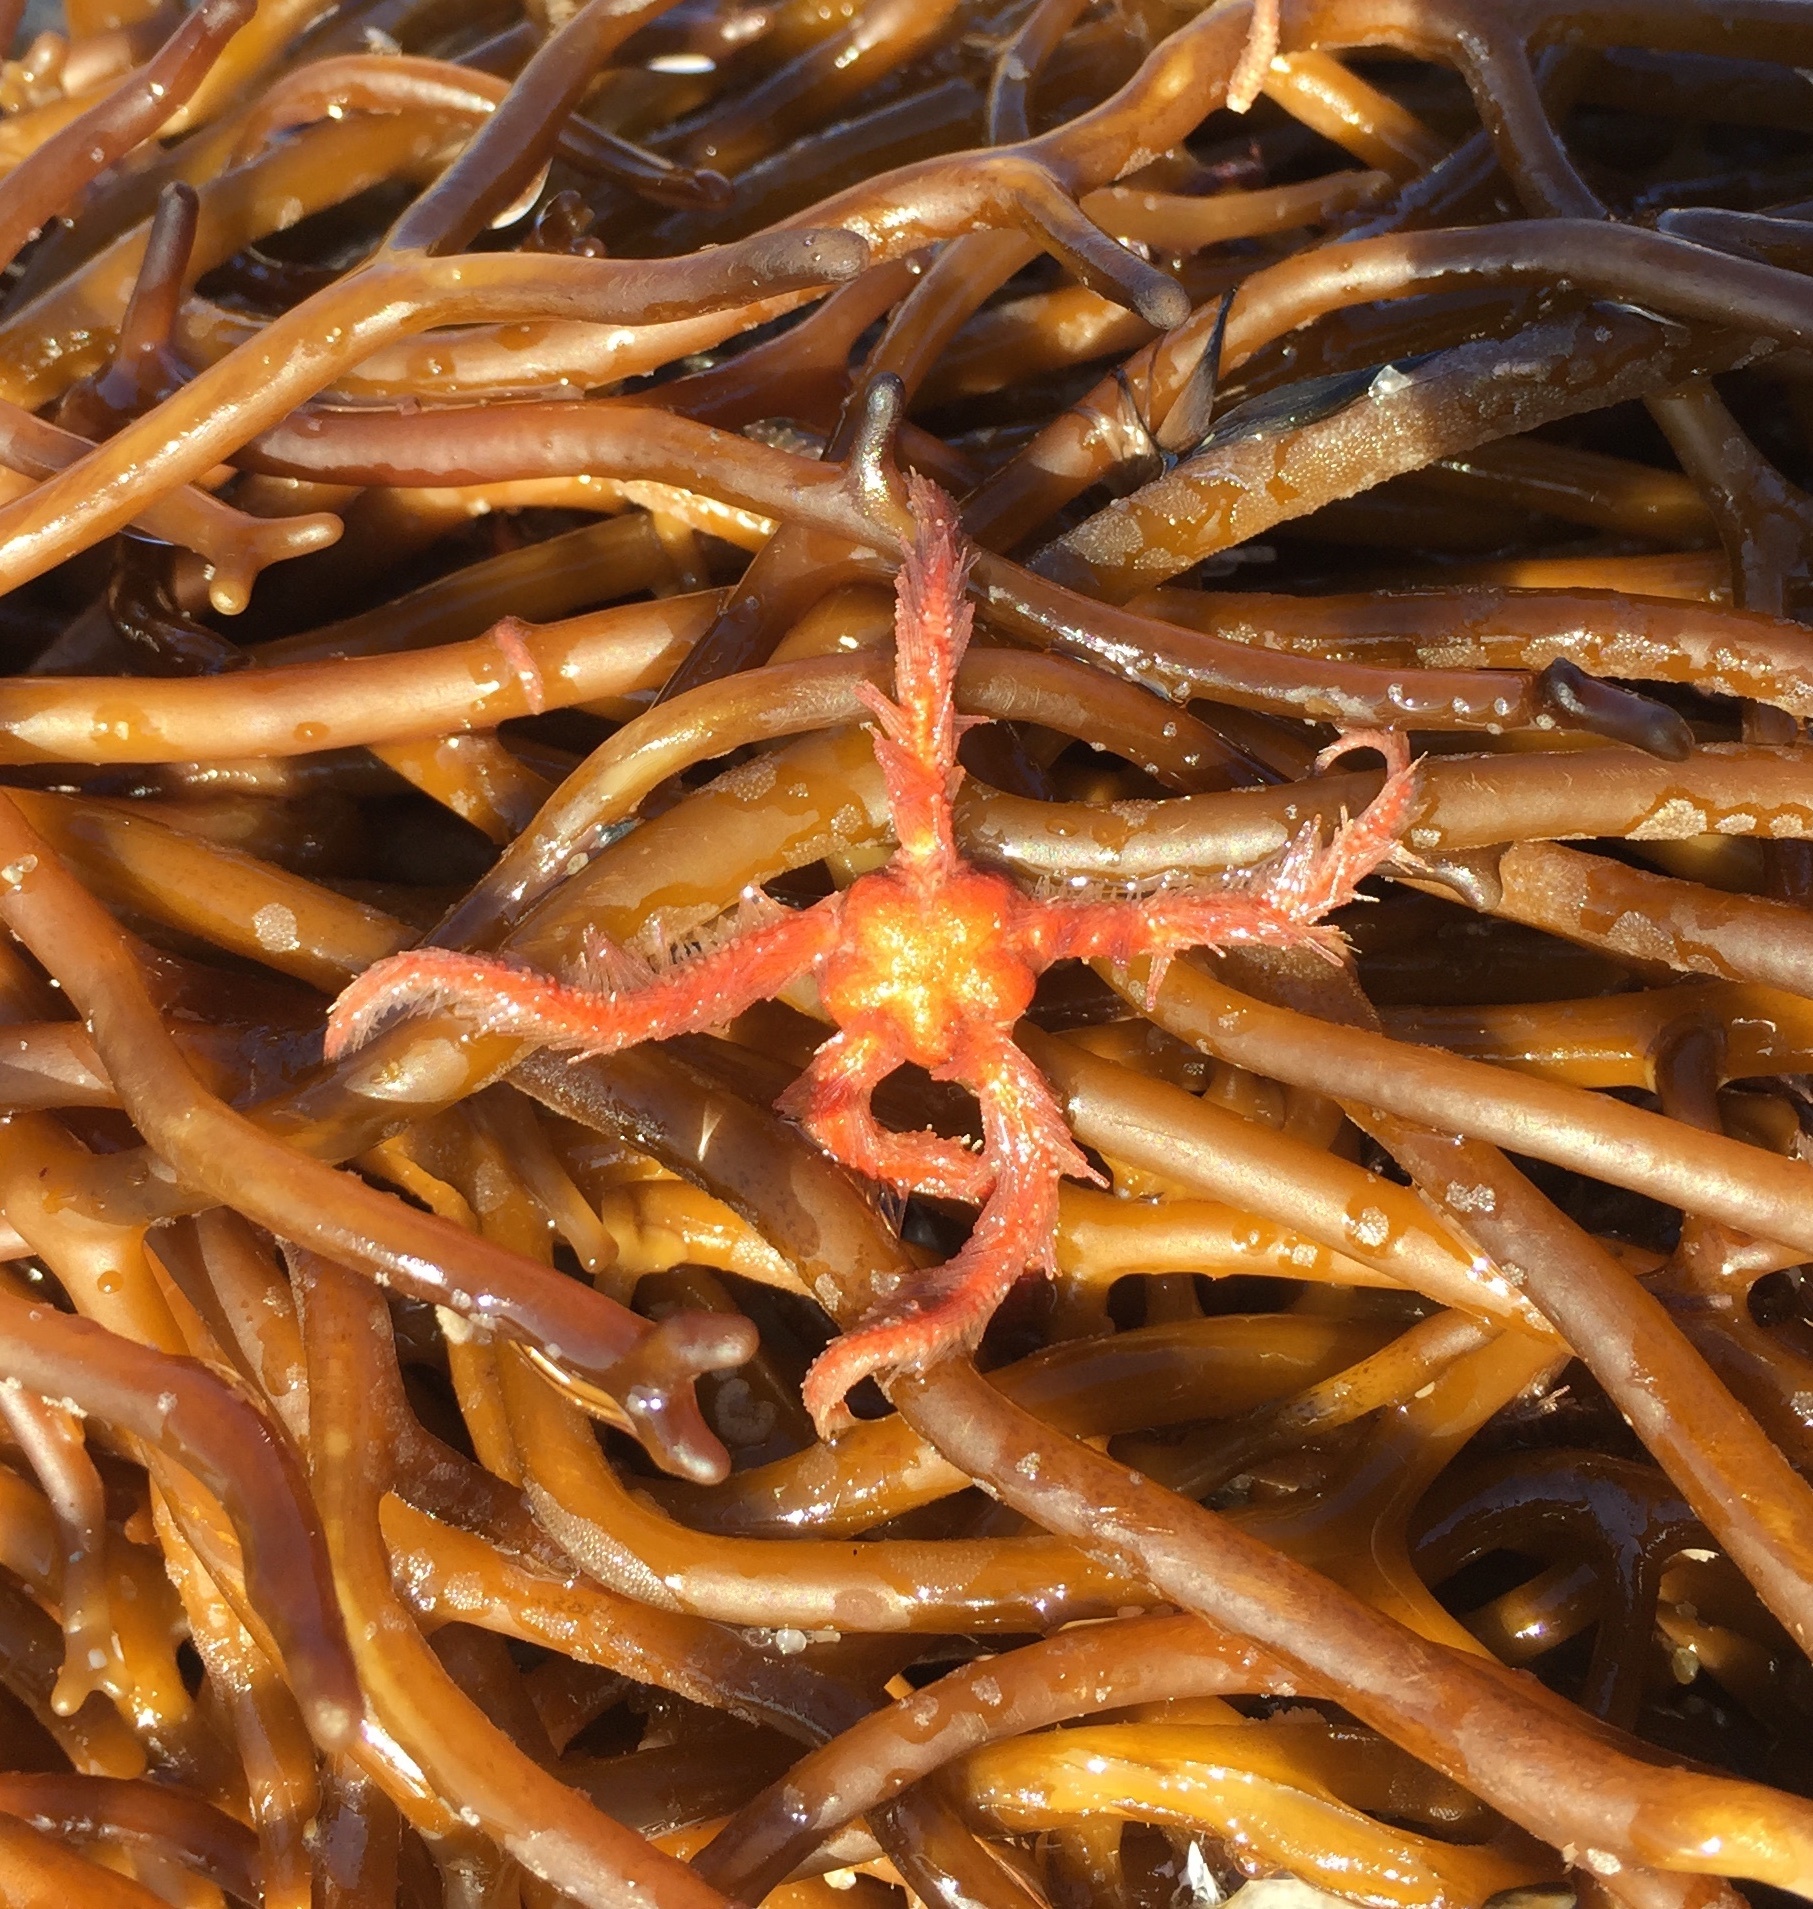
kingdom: Animalia
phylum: Echinodermata
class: Ophiuroidea
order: Amphilepidida
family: Ophiotrichidae
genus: Ophiothrix
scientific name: Ophiothrix spiculata
